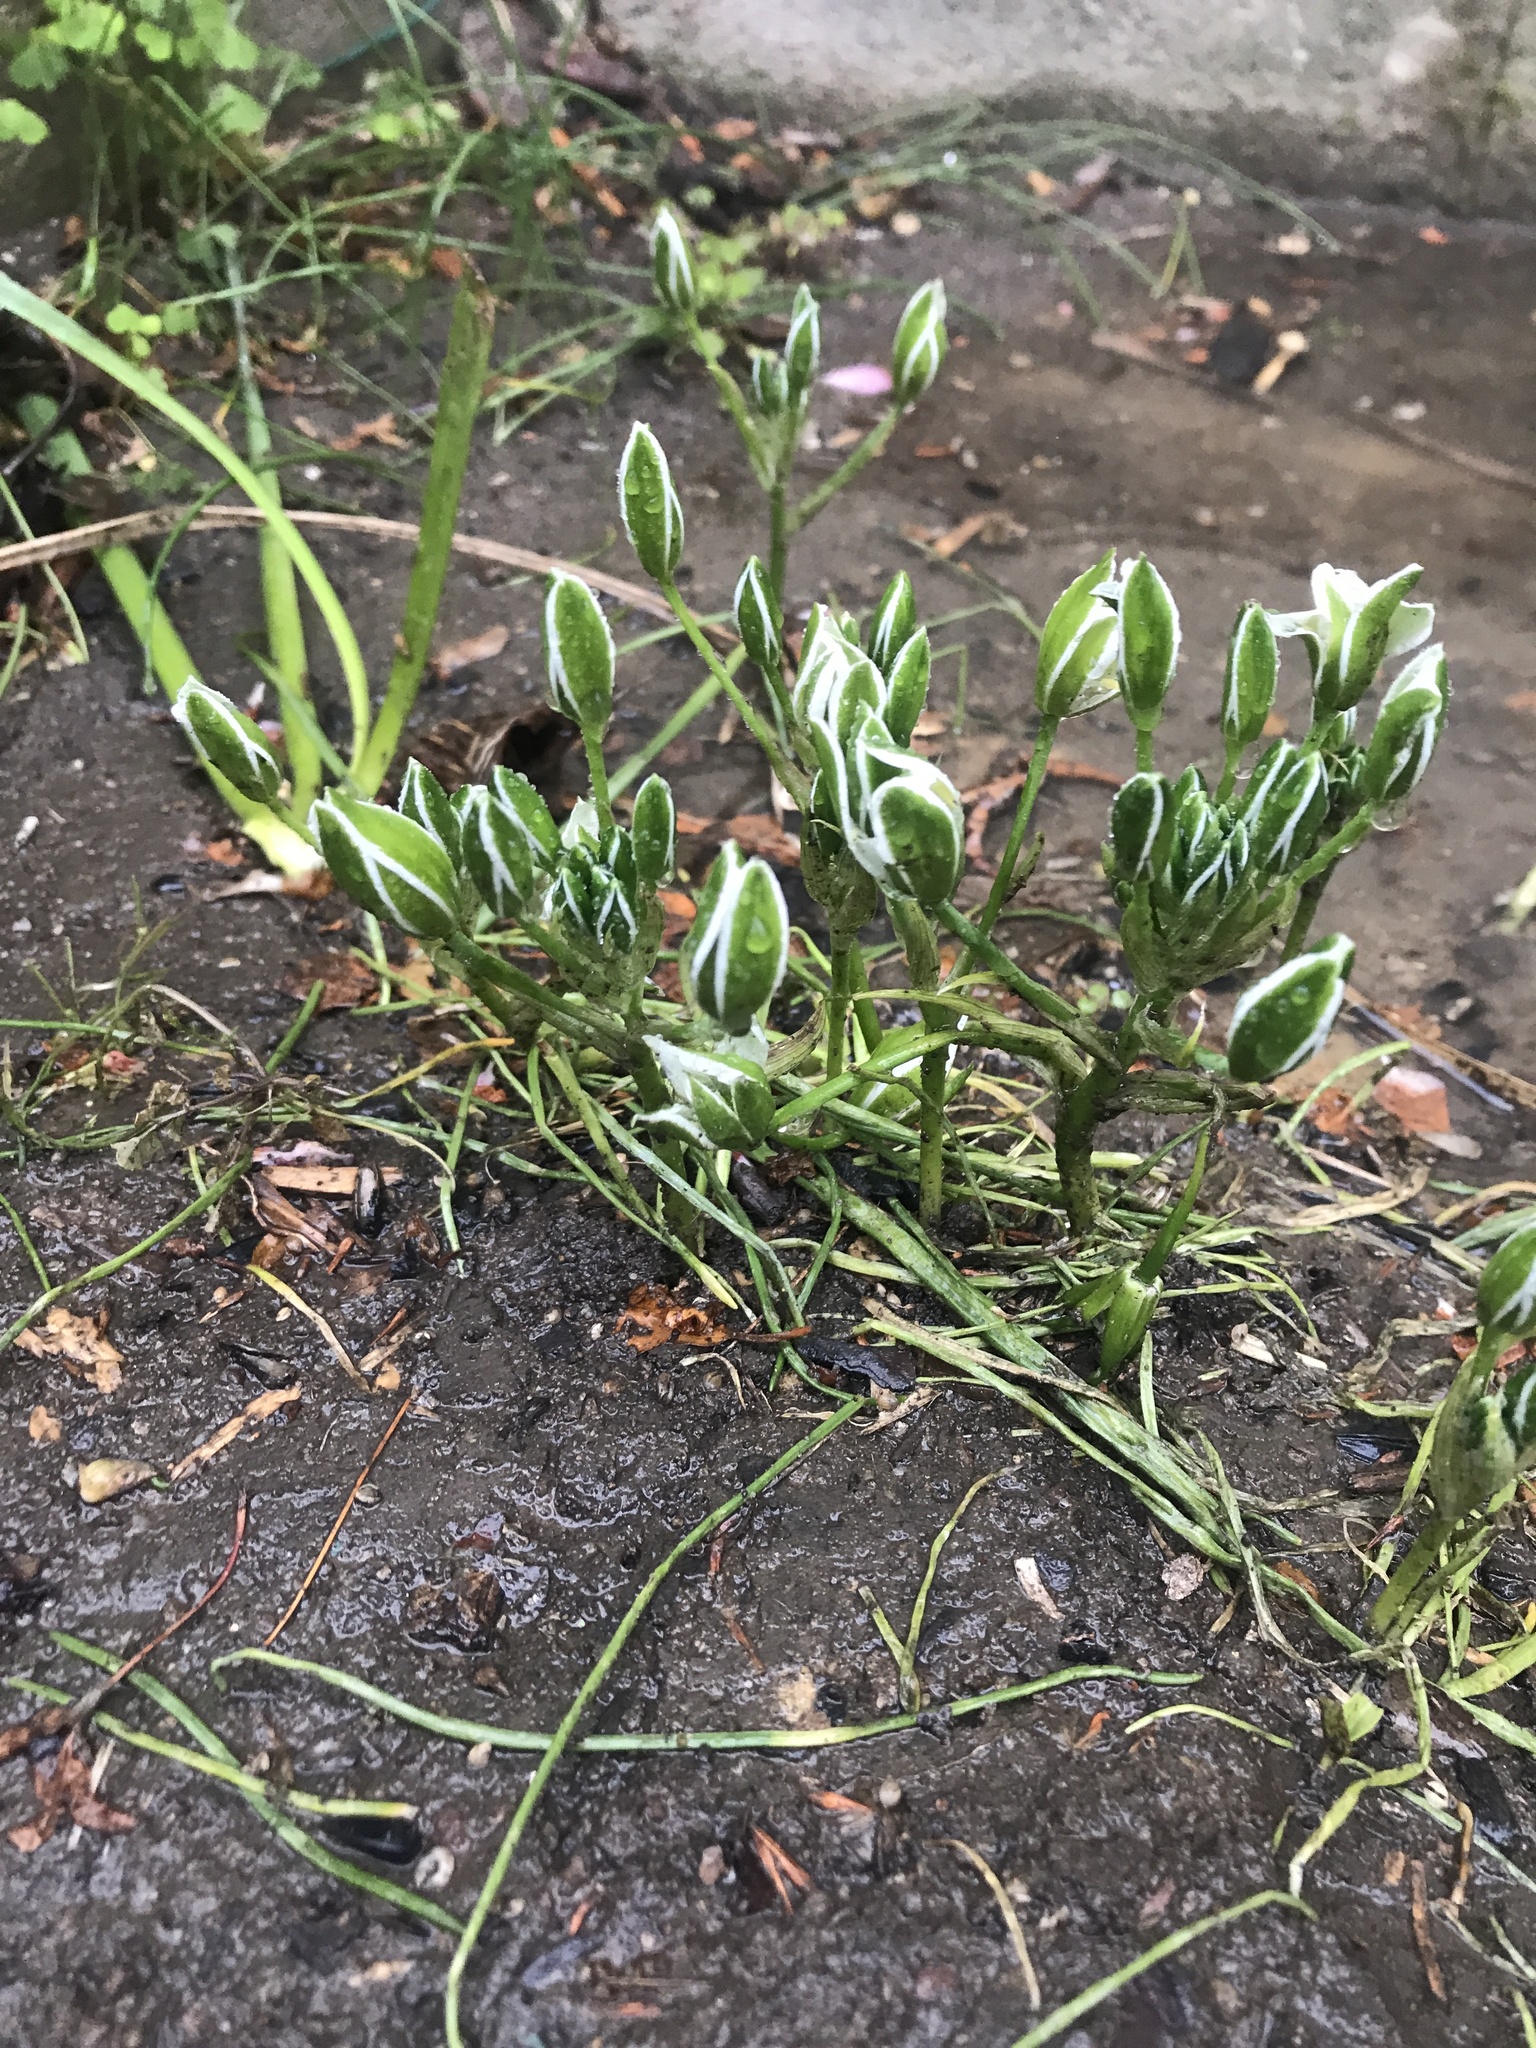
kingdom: Plantae
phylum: Tracheophyta
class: Liliopsida
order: Asparagales
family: Asparagaceae
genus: Ornithogalum
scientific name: Ornithogalum umbellatum
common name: Garden star-of-bethlehem
